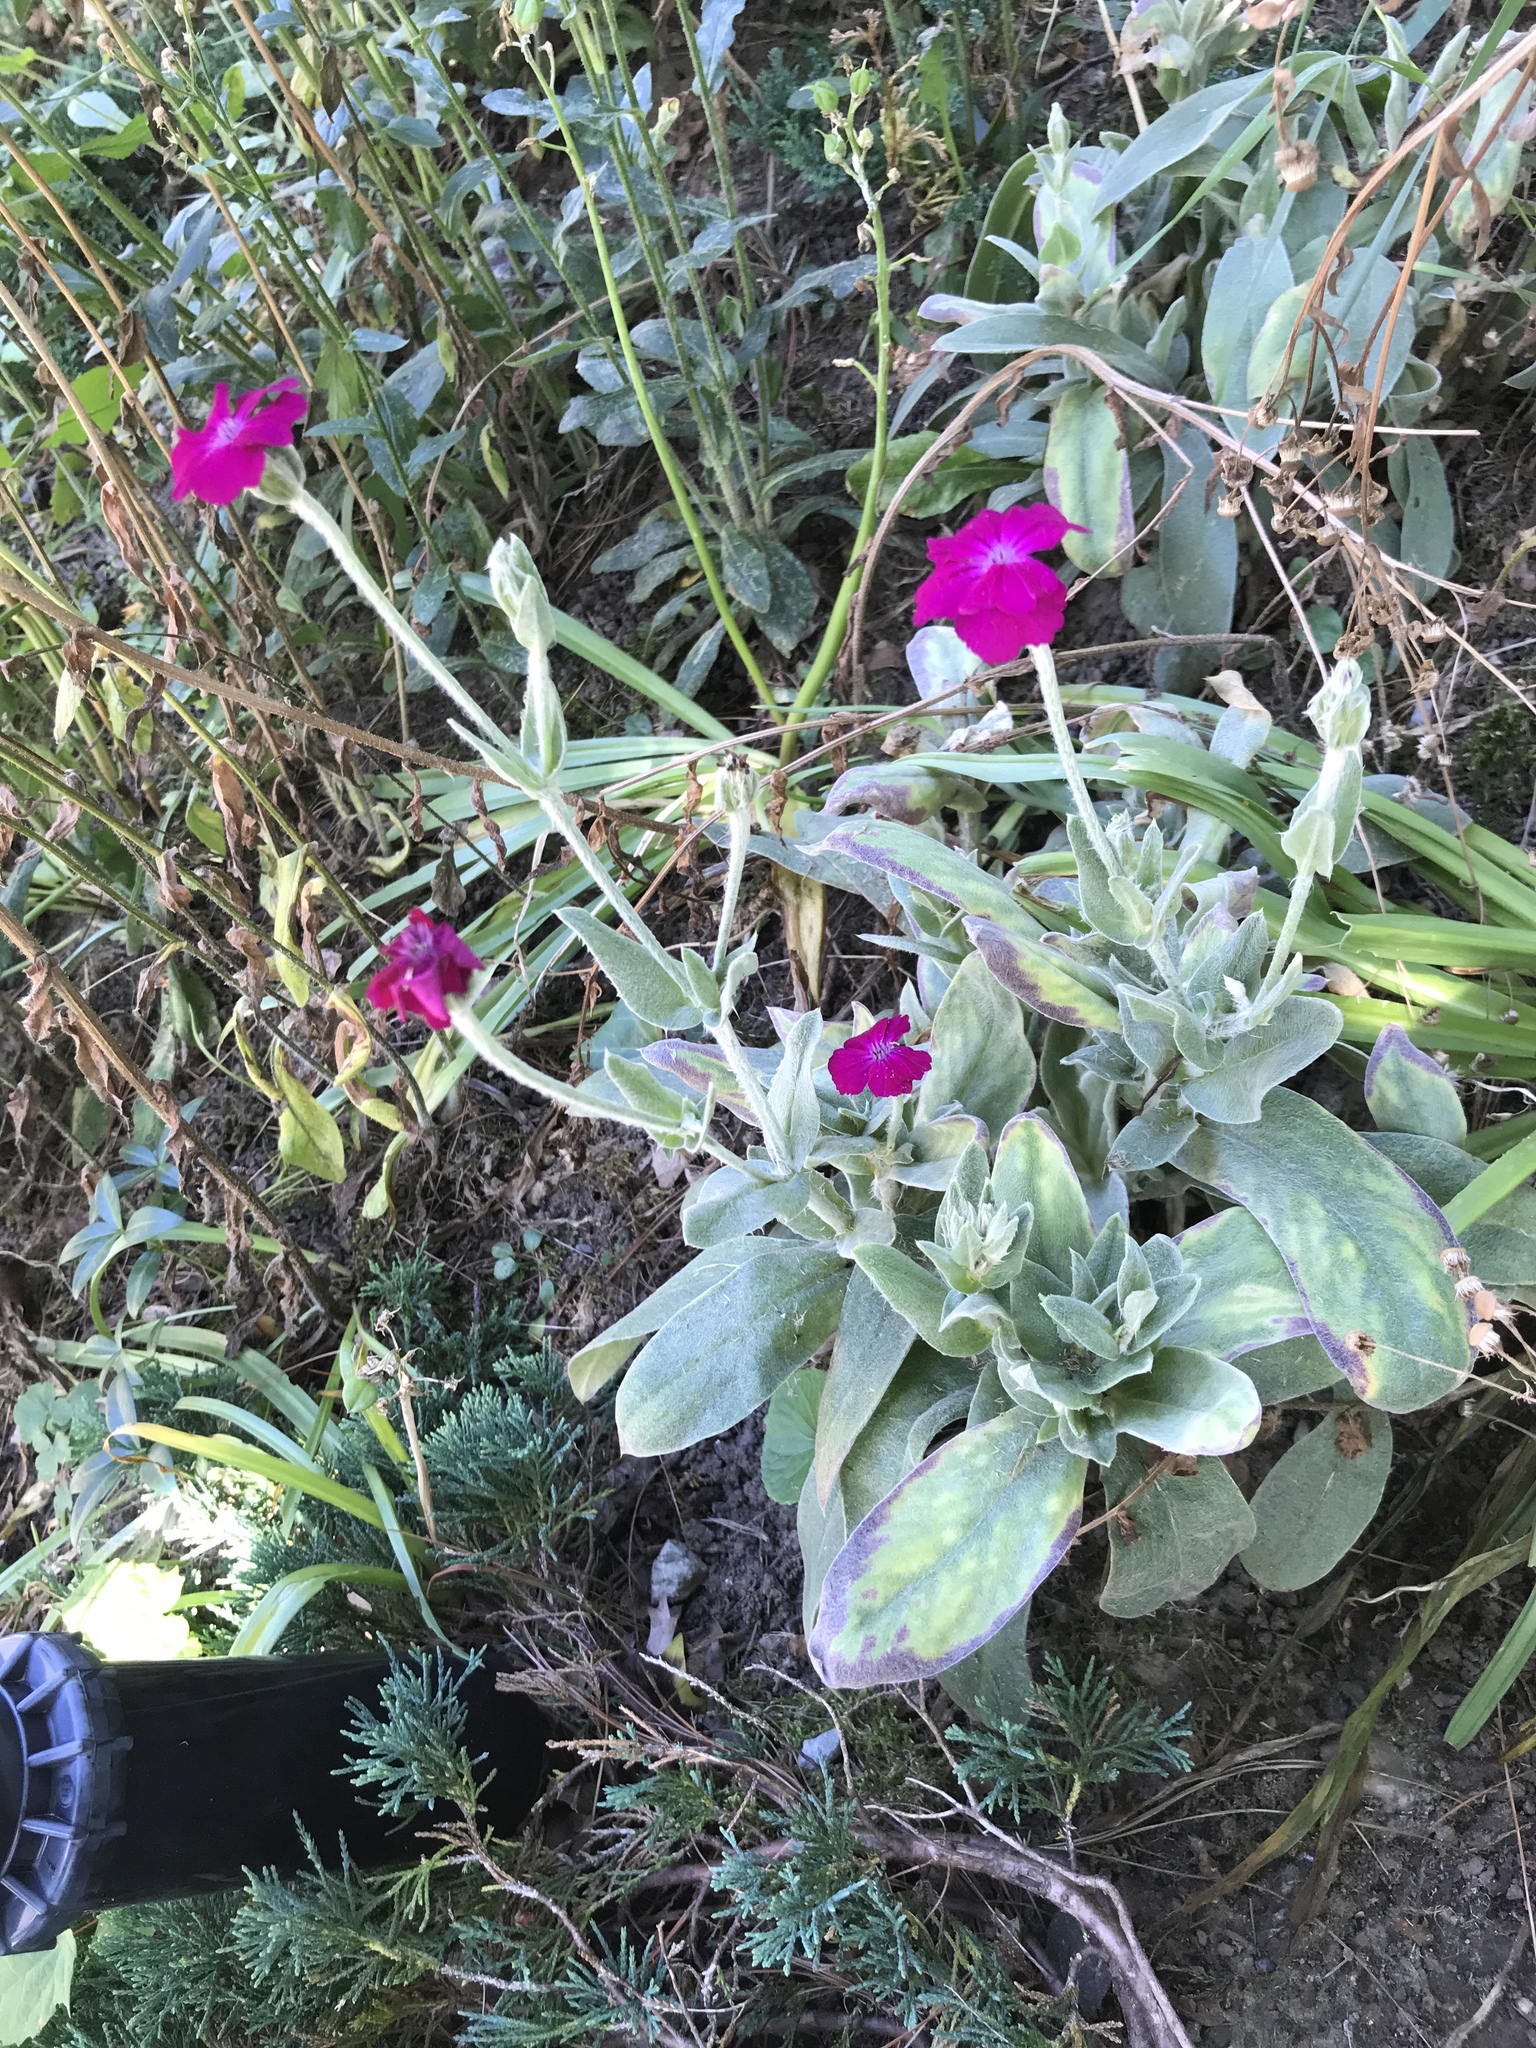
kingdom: Plantae
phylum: Tracheophyta
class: Magnoliopsida
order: Caryophyllales
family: Caryophyllaceae
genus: Silene
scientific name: Silene coronaria
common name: Rose campion
